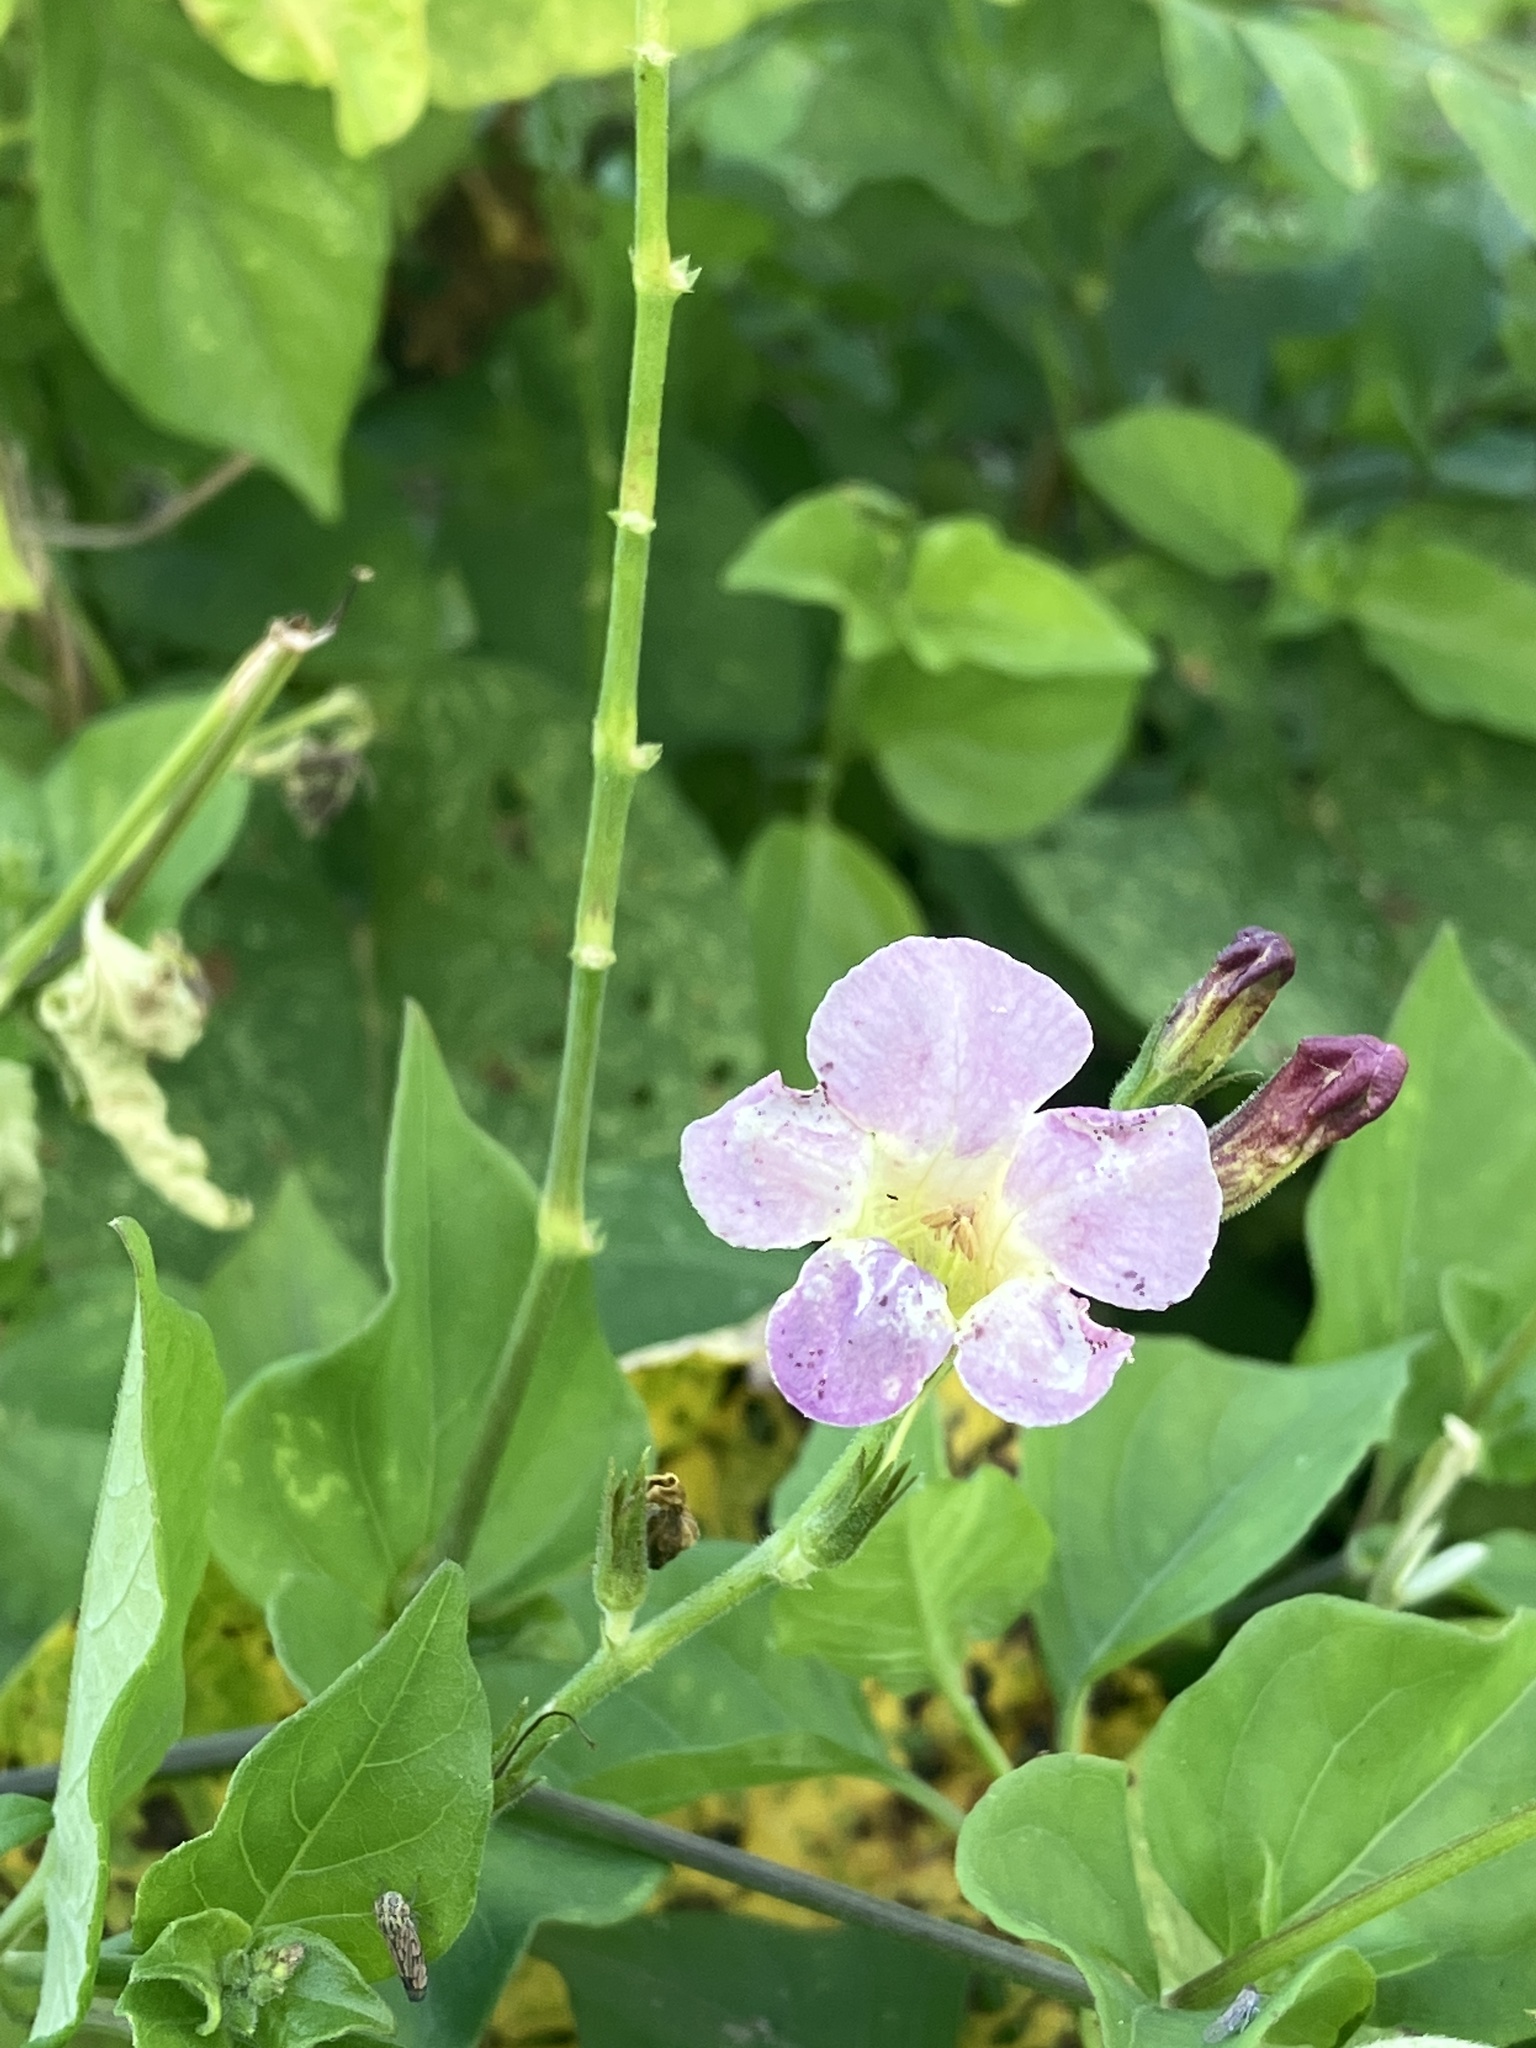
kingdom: Plantae
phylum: Tracheophyta
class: Magnoliopsida
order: Lamiales
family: Acanthaceae
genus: Asystasia
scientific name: Asystasia gangetica
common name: Chinese violet
